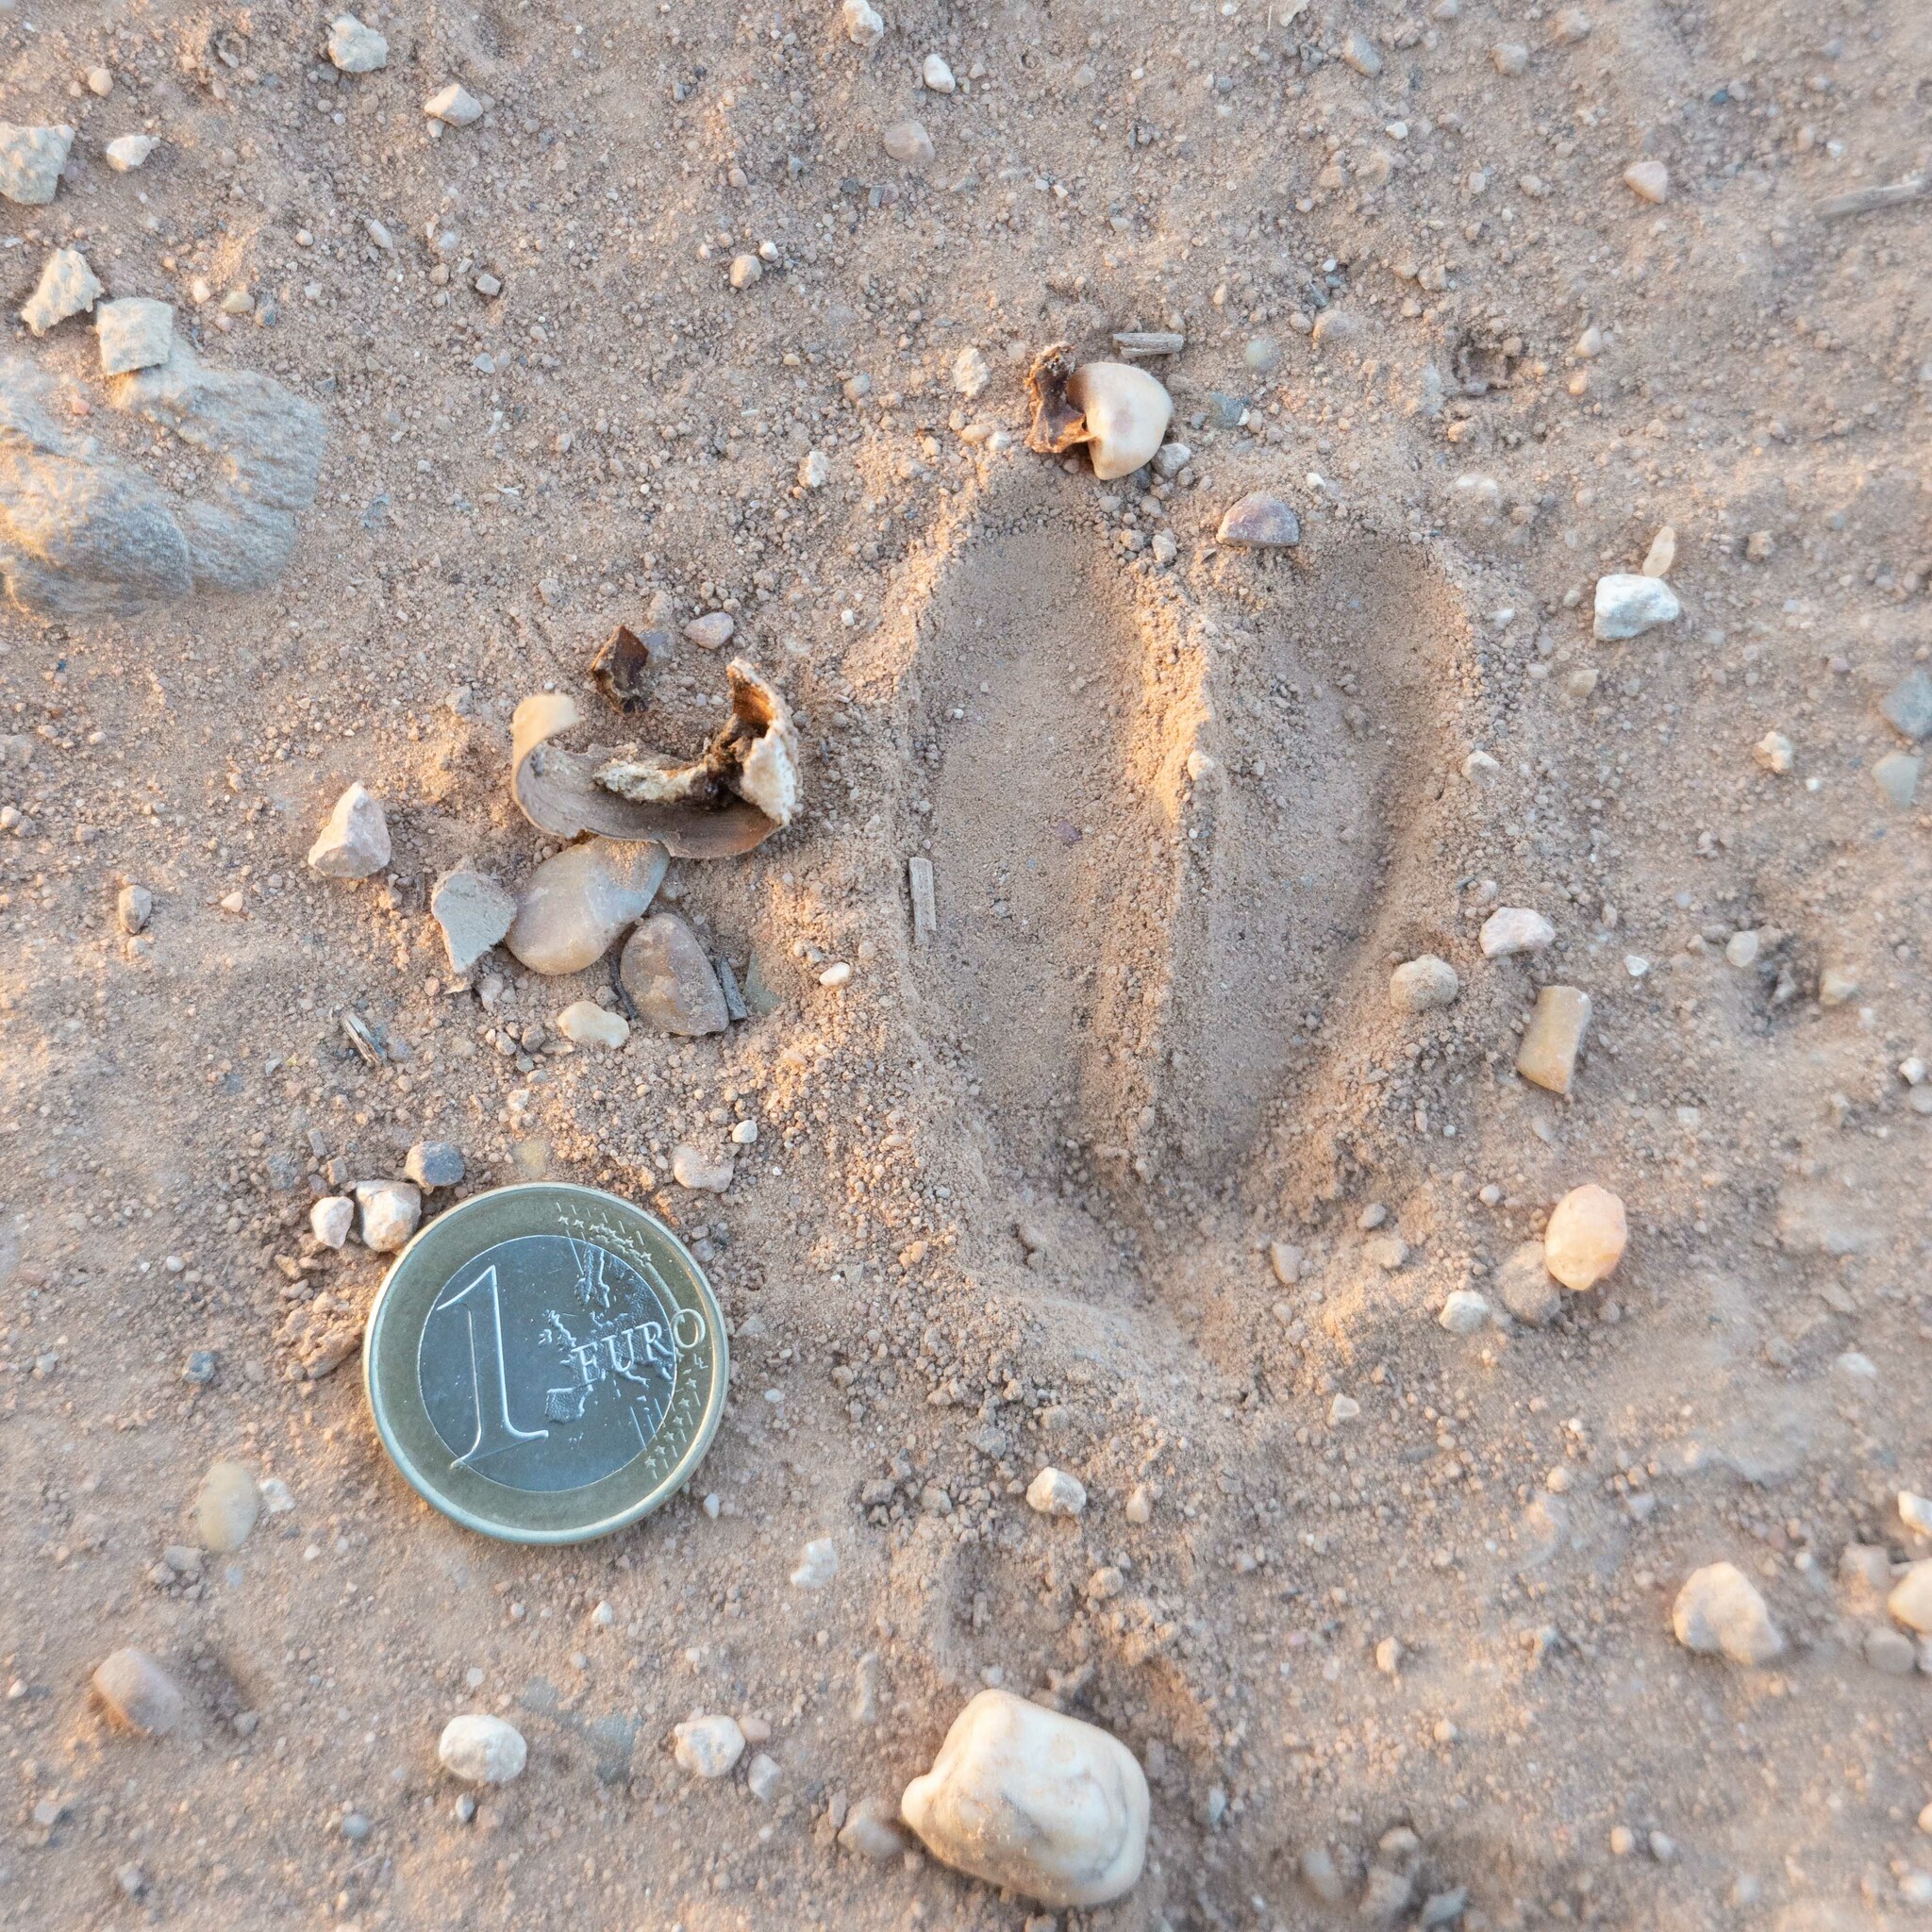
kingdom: Animalia
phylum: Chordata
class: Mammalia
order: Artiodactyla
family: Cervidae
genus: Capreolus
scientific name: Capreolus capreolus
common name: Western roe deer
